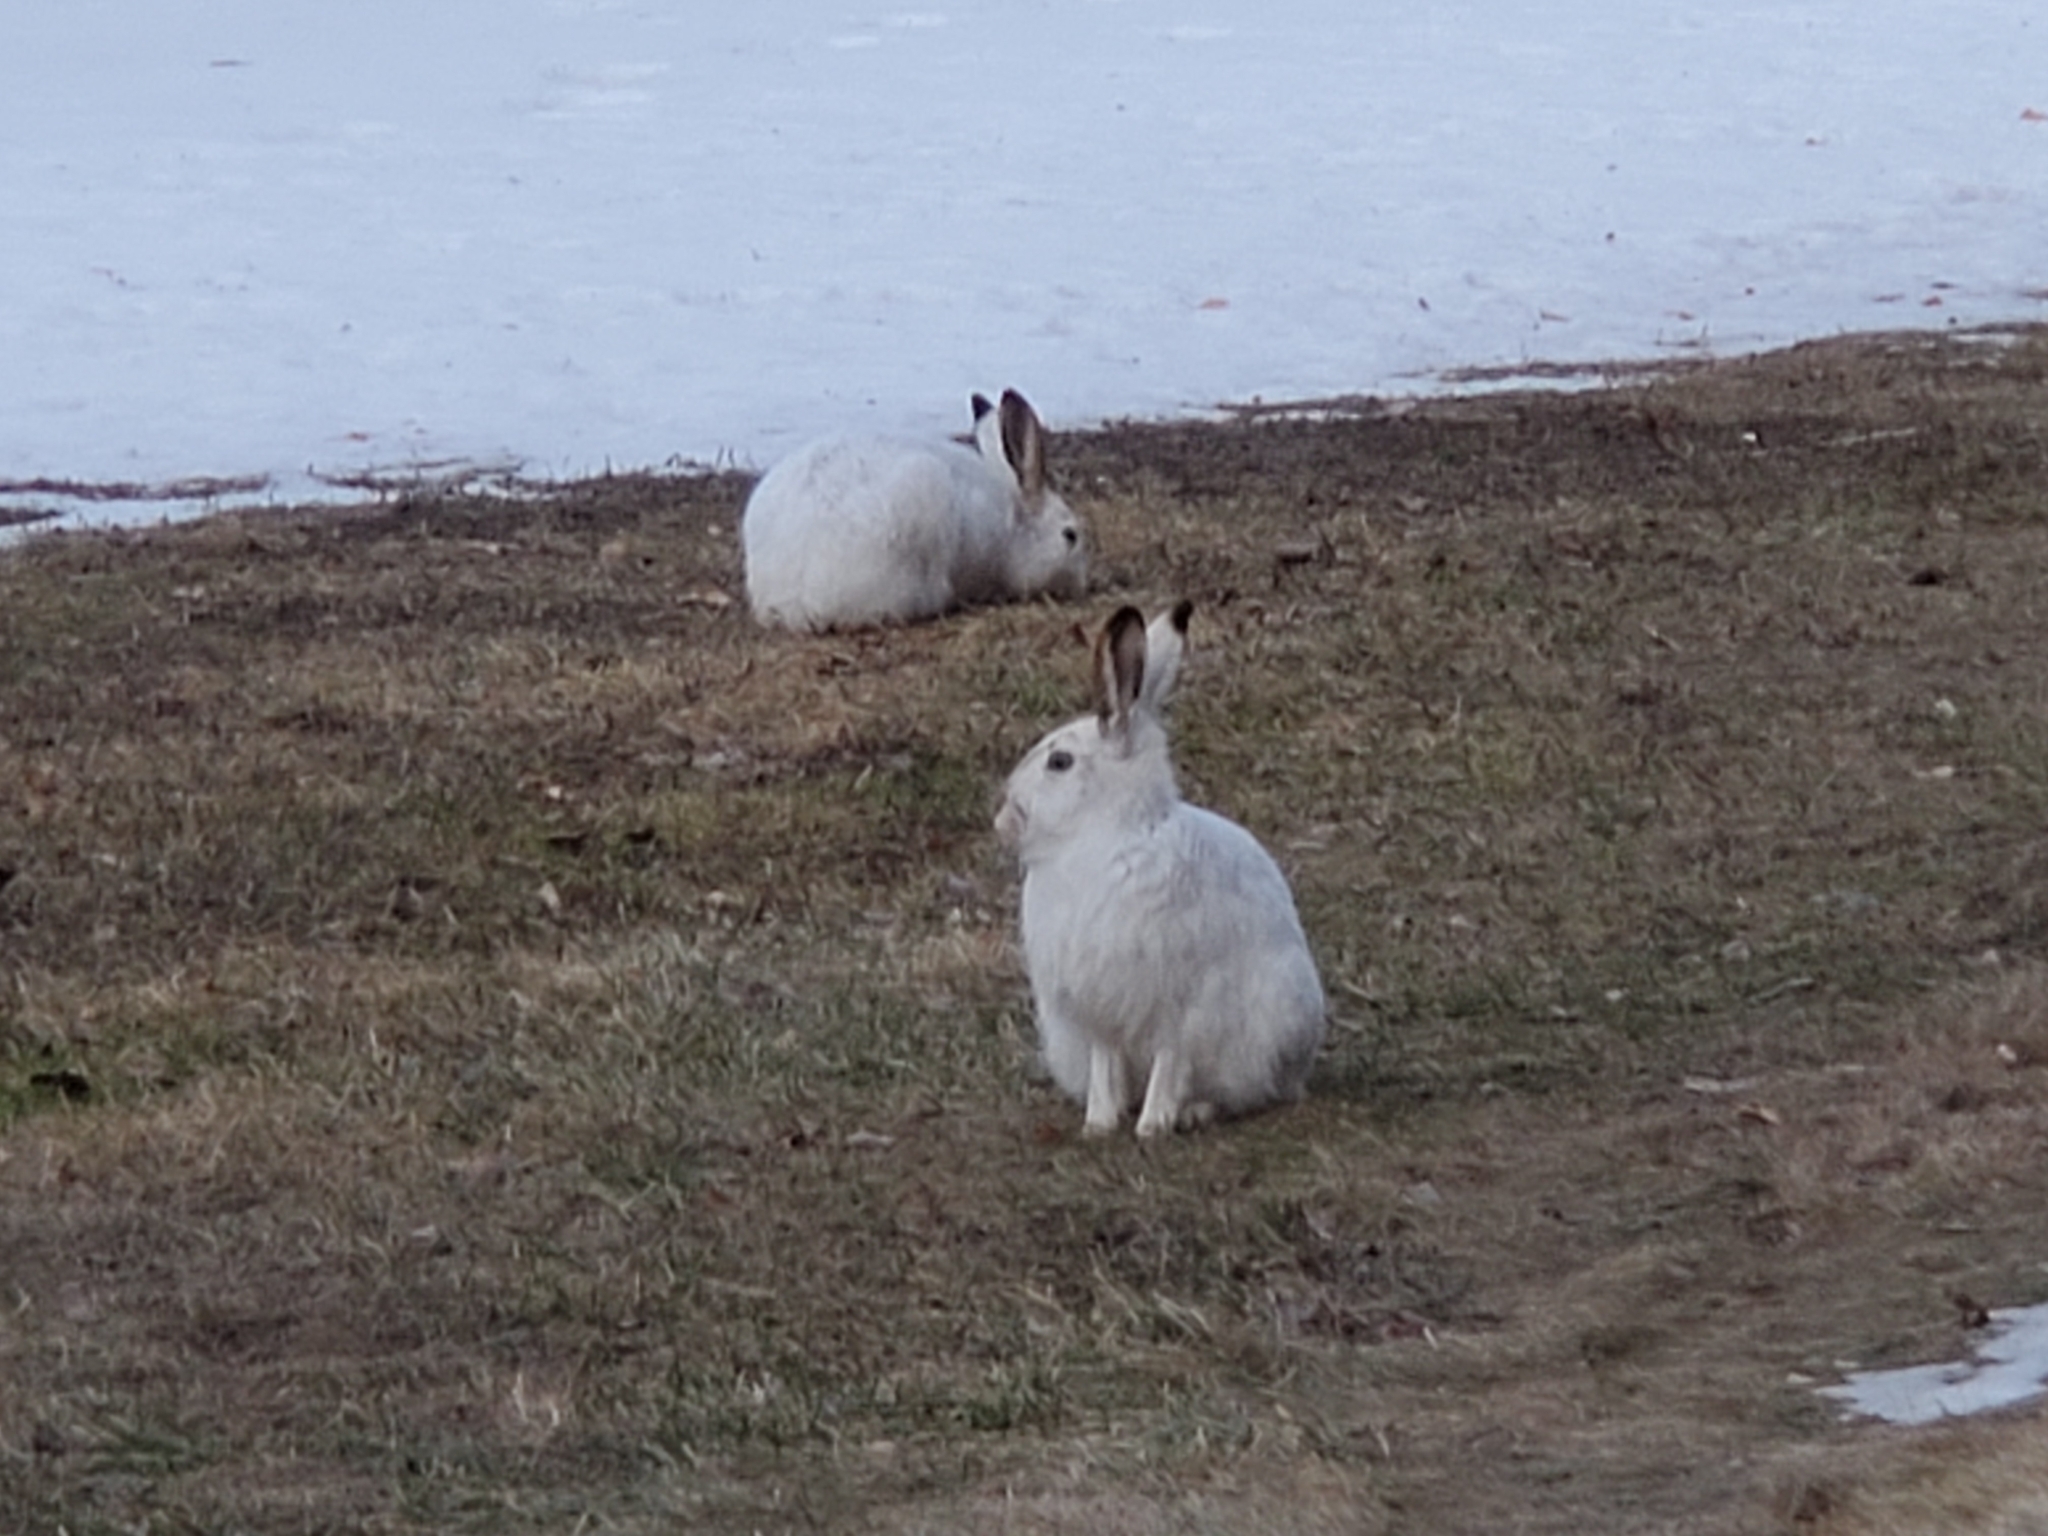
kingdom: Animalia
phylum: Chordata
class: Mammalia
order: Lagomorpha
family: Leporidae
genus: Lepus
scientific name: Lepus townsendii
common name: White-tailed jackrabbit
